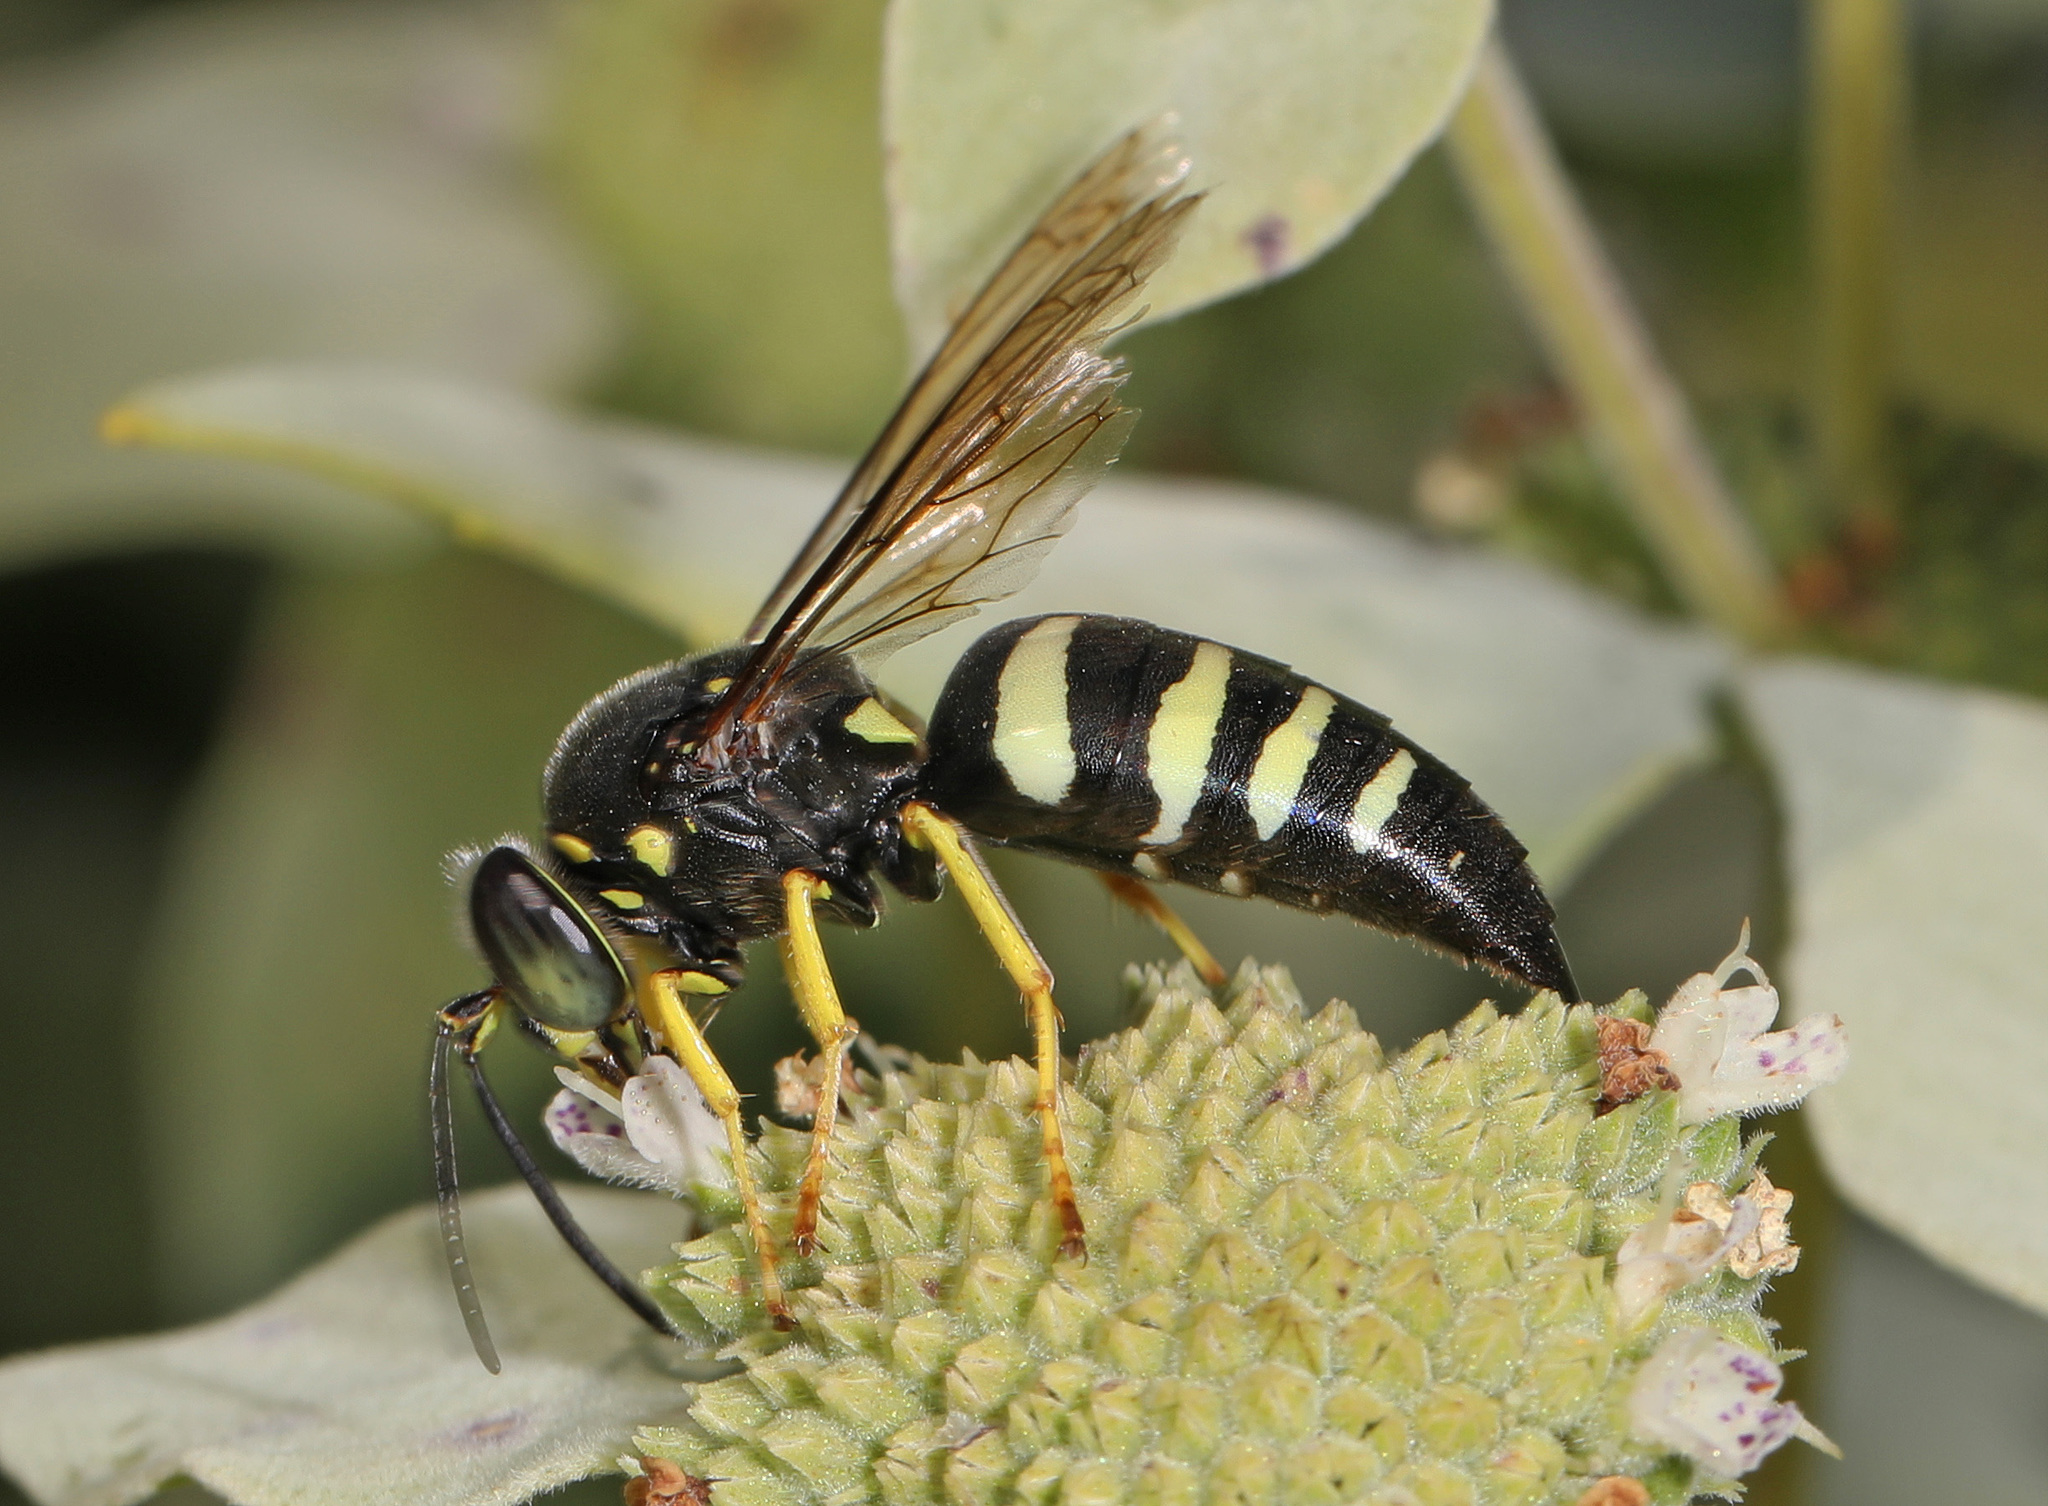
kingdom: Animalia
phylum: Arthropoda
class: Insecta
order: Hymenoptera
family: Crabronidae
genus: Bicyrtes
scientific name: Bicyrtes quadrifasciatus
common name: Four-banded stink bug hunter wasp
